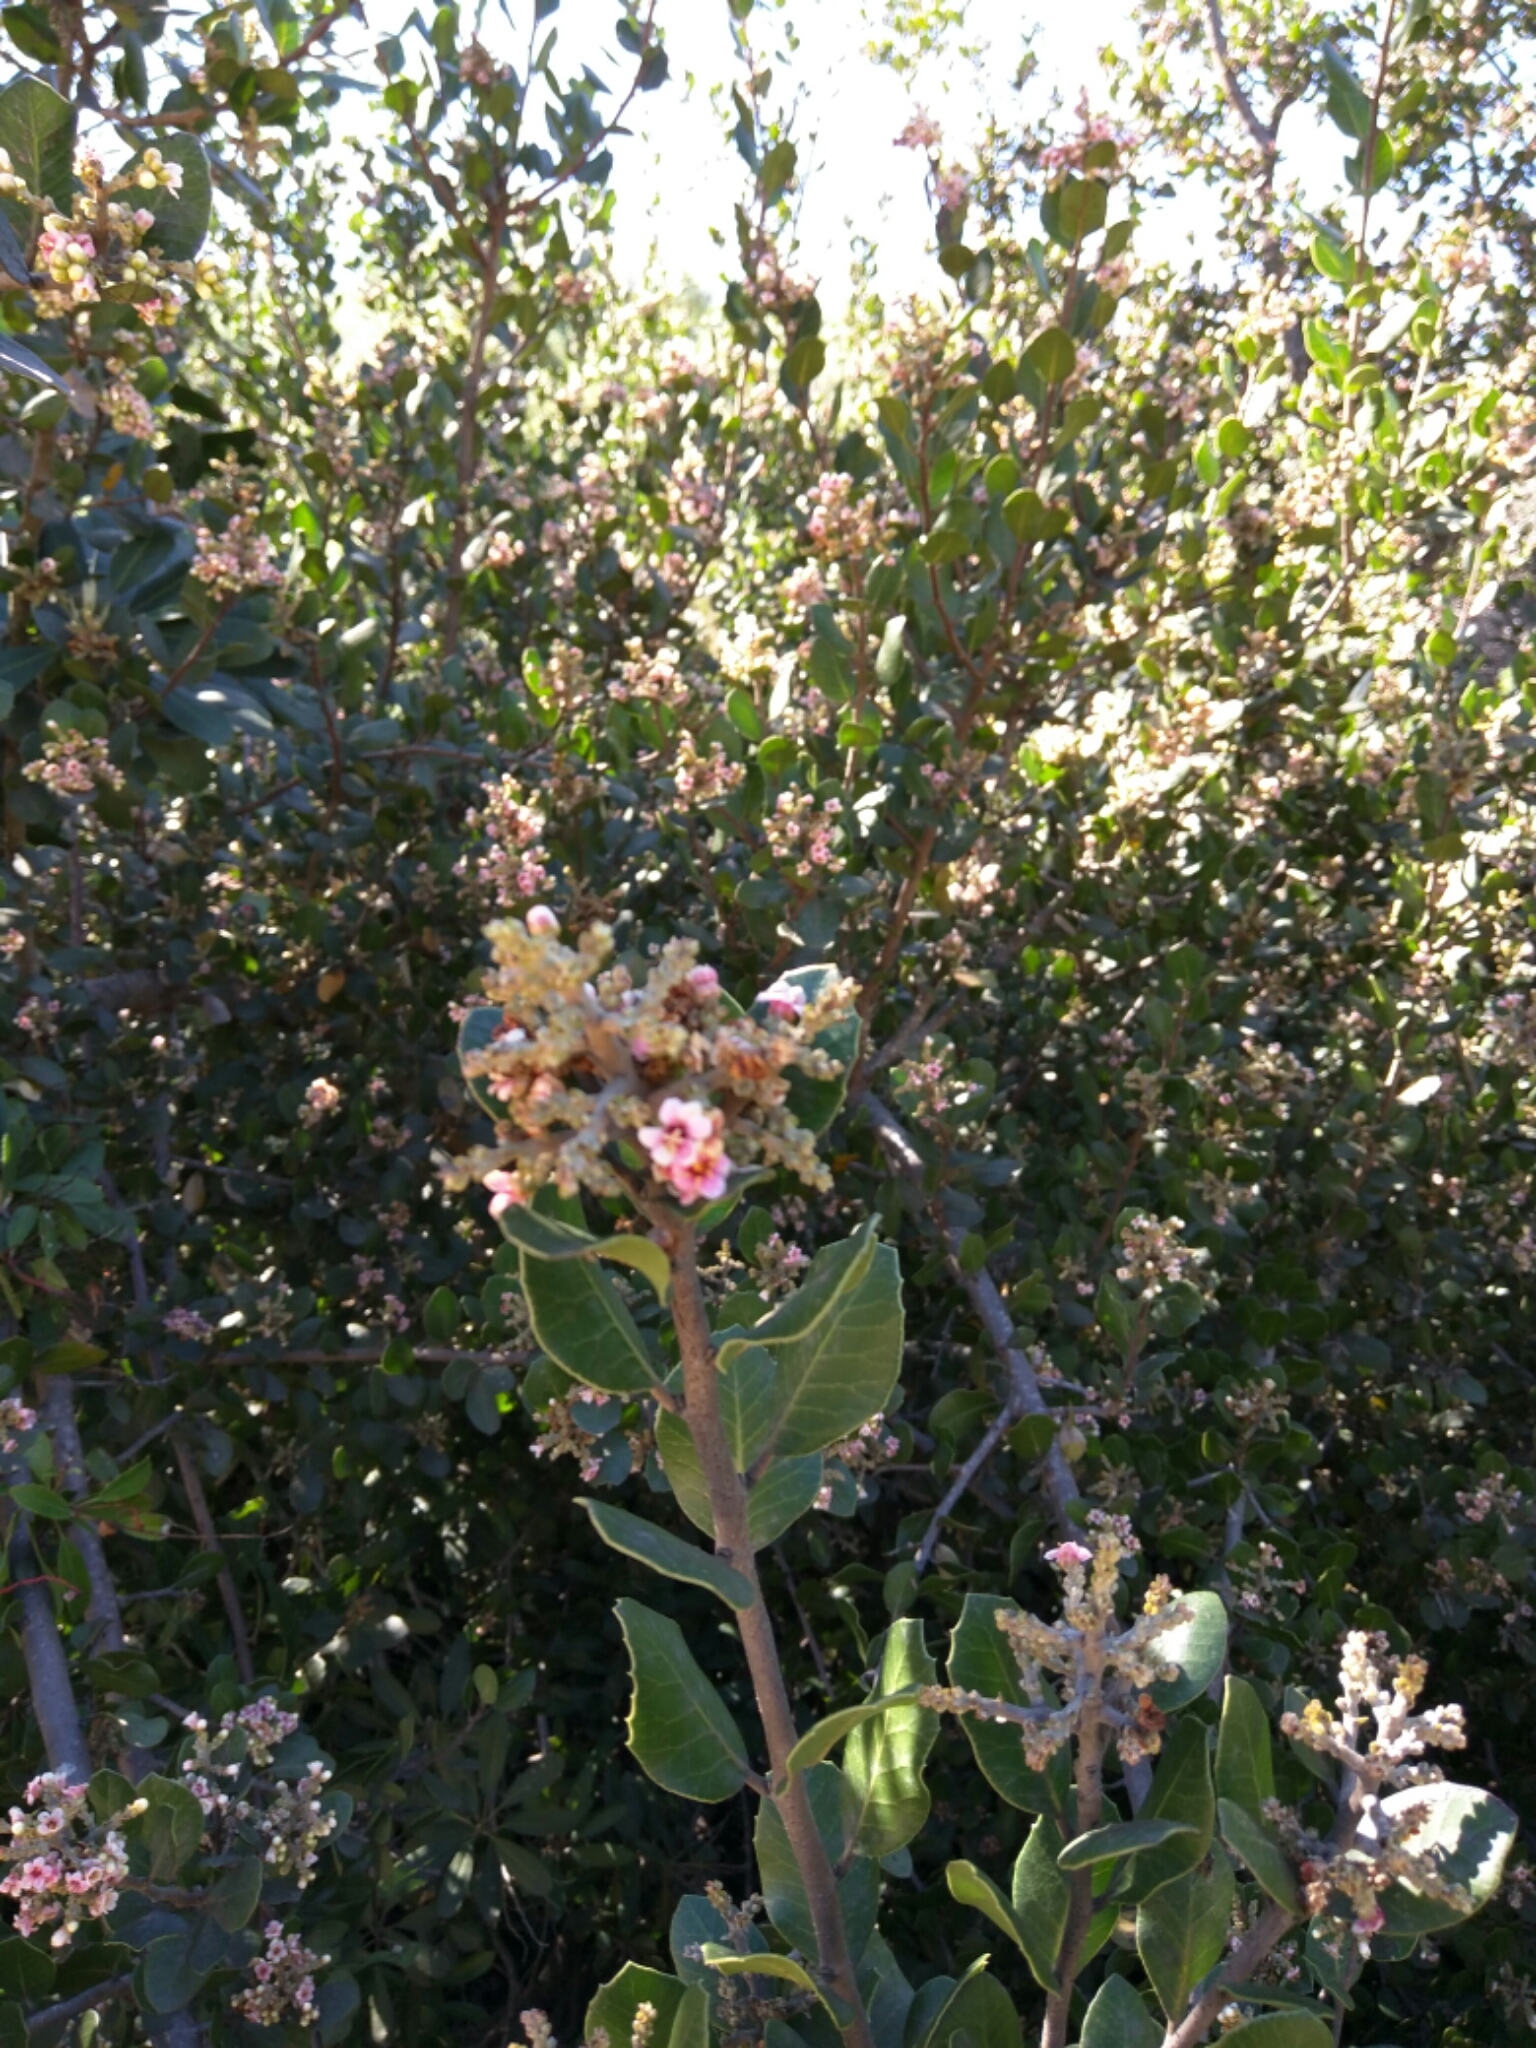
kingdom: Plantae
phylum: Tracheophyta
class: Magnoliopsida
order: Sapindales
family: Anacardiaceae
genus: Rhus
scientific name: Rhus integrifolia
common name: Lemonade sumac
